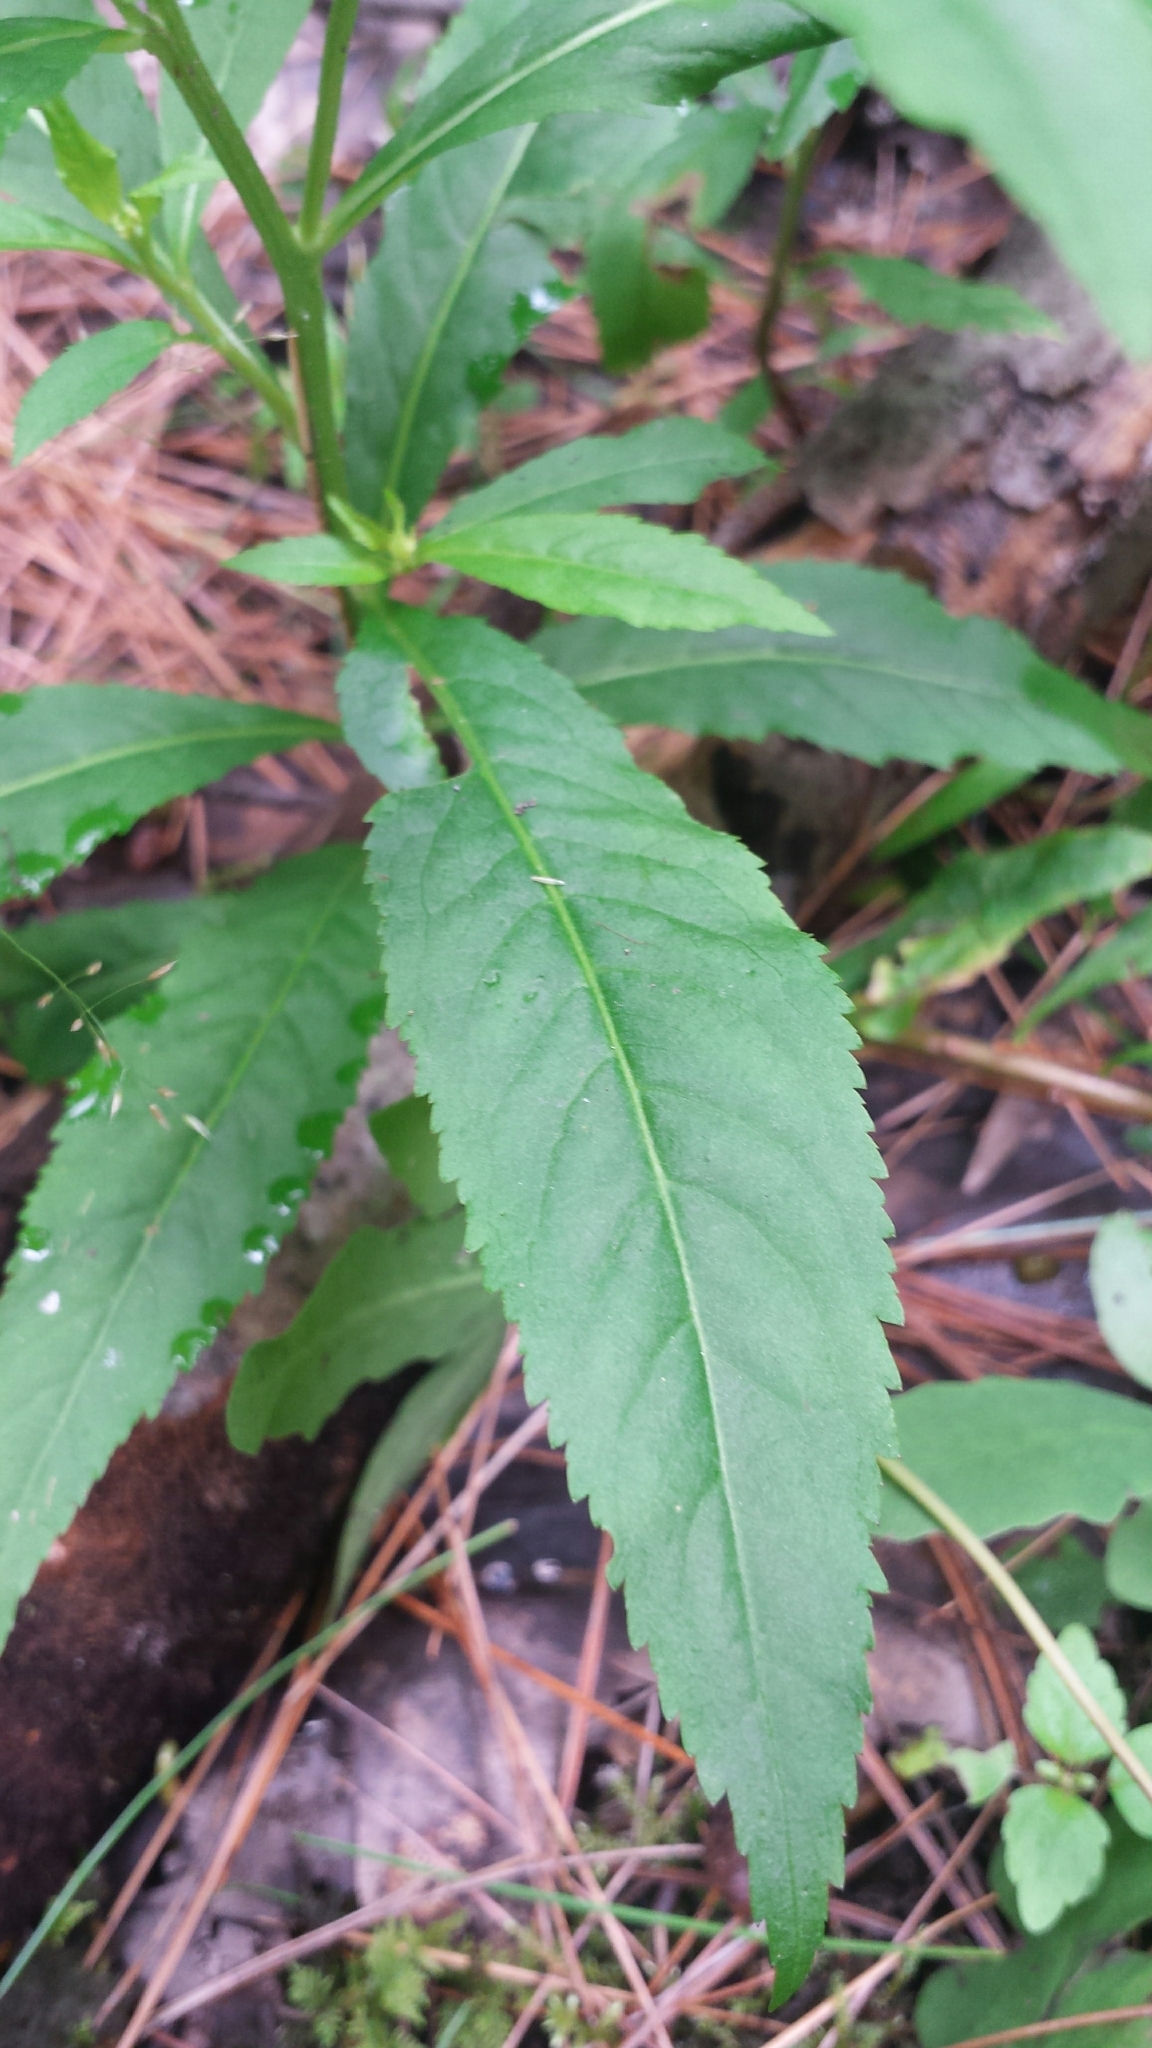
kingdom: Plantae
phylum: Tracheophyta
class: Magnoliopsida
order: Saxifragales
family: Penthoraceae
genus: Penthorum
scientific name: Penthorum sedoides
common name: Ditch stonecrop
